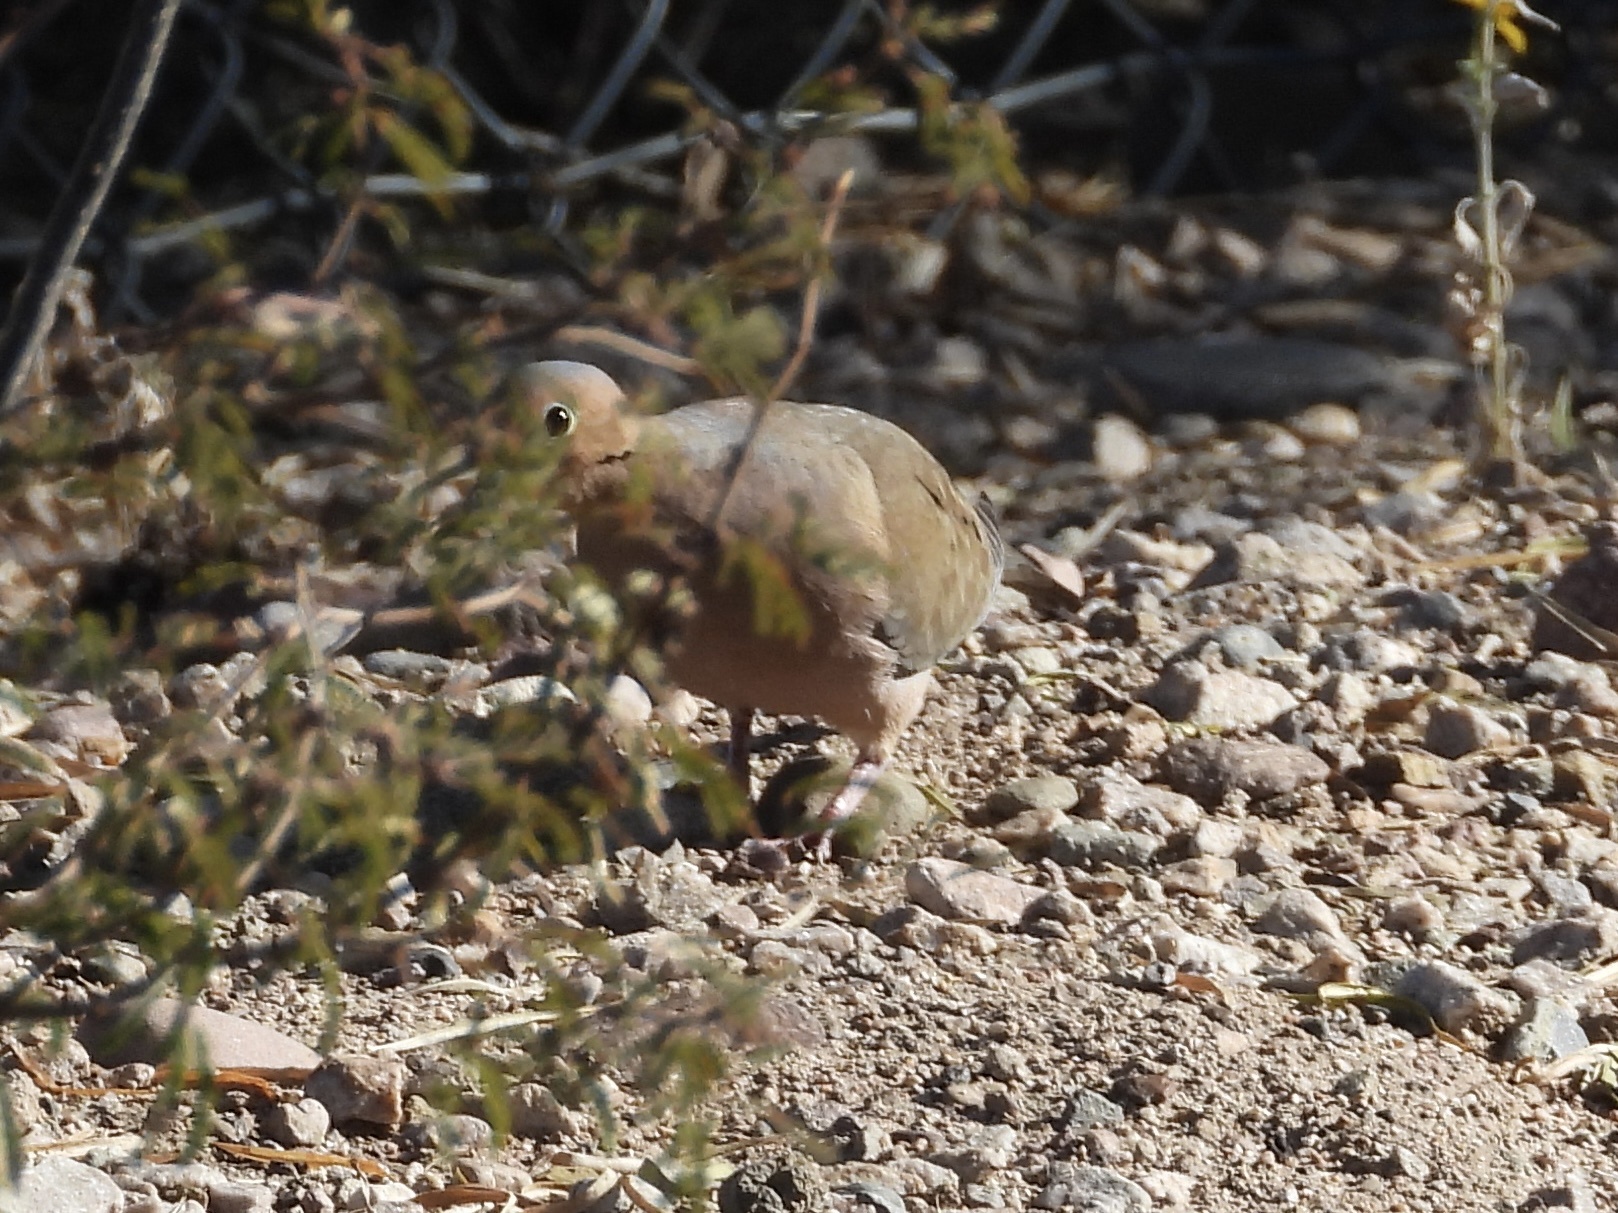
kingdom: Animalia
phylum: Chordata
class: Aves
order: Columbiformes
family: Columbidae
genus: Zenaida
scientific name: Zenaida macroura
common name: Mourning dove
